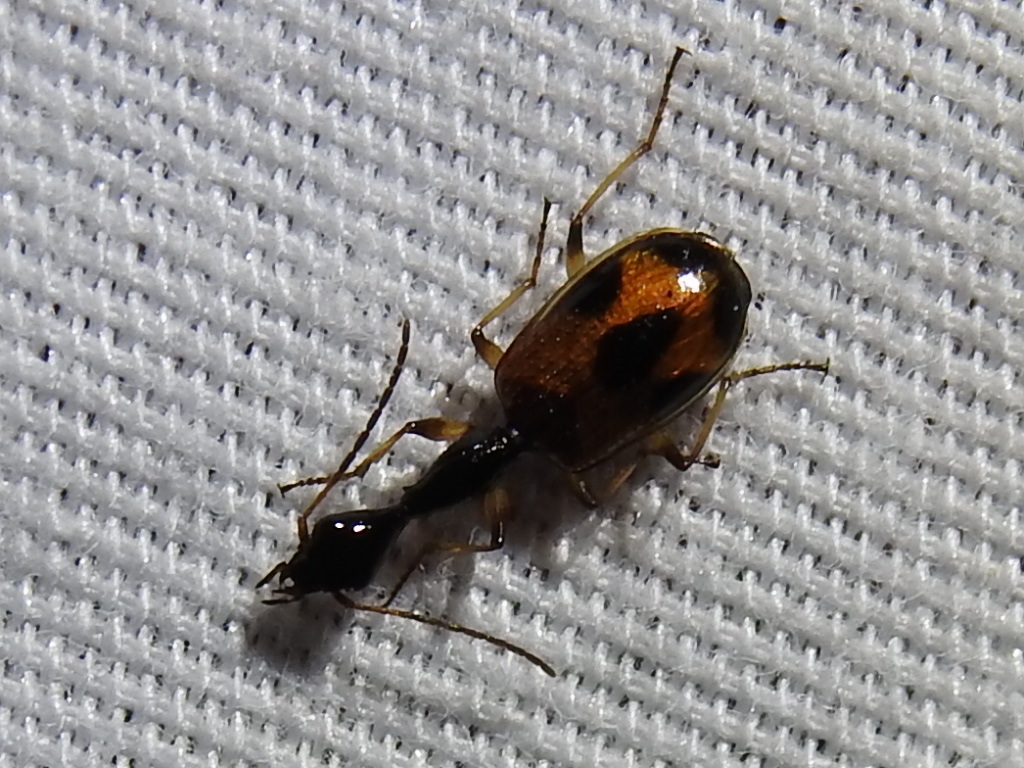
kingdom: Animalia
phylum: Arthropoda
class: Insecta
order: Coleoptera
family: Carabidae
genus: Colliuris
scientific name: Colliuris pensylvanica
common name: Long-necked ground beetle
